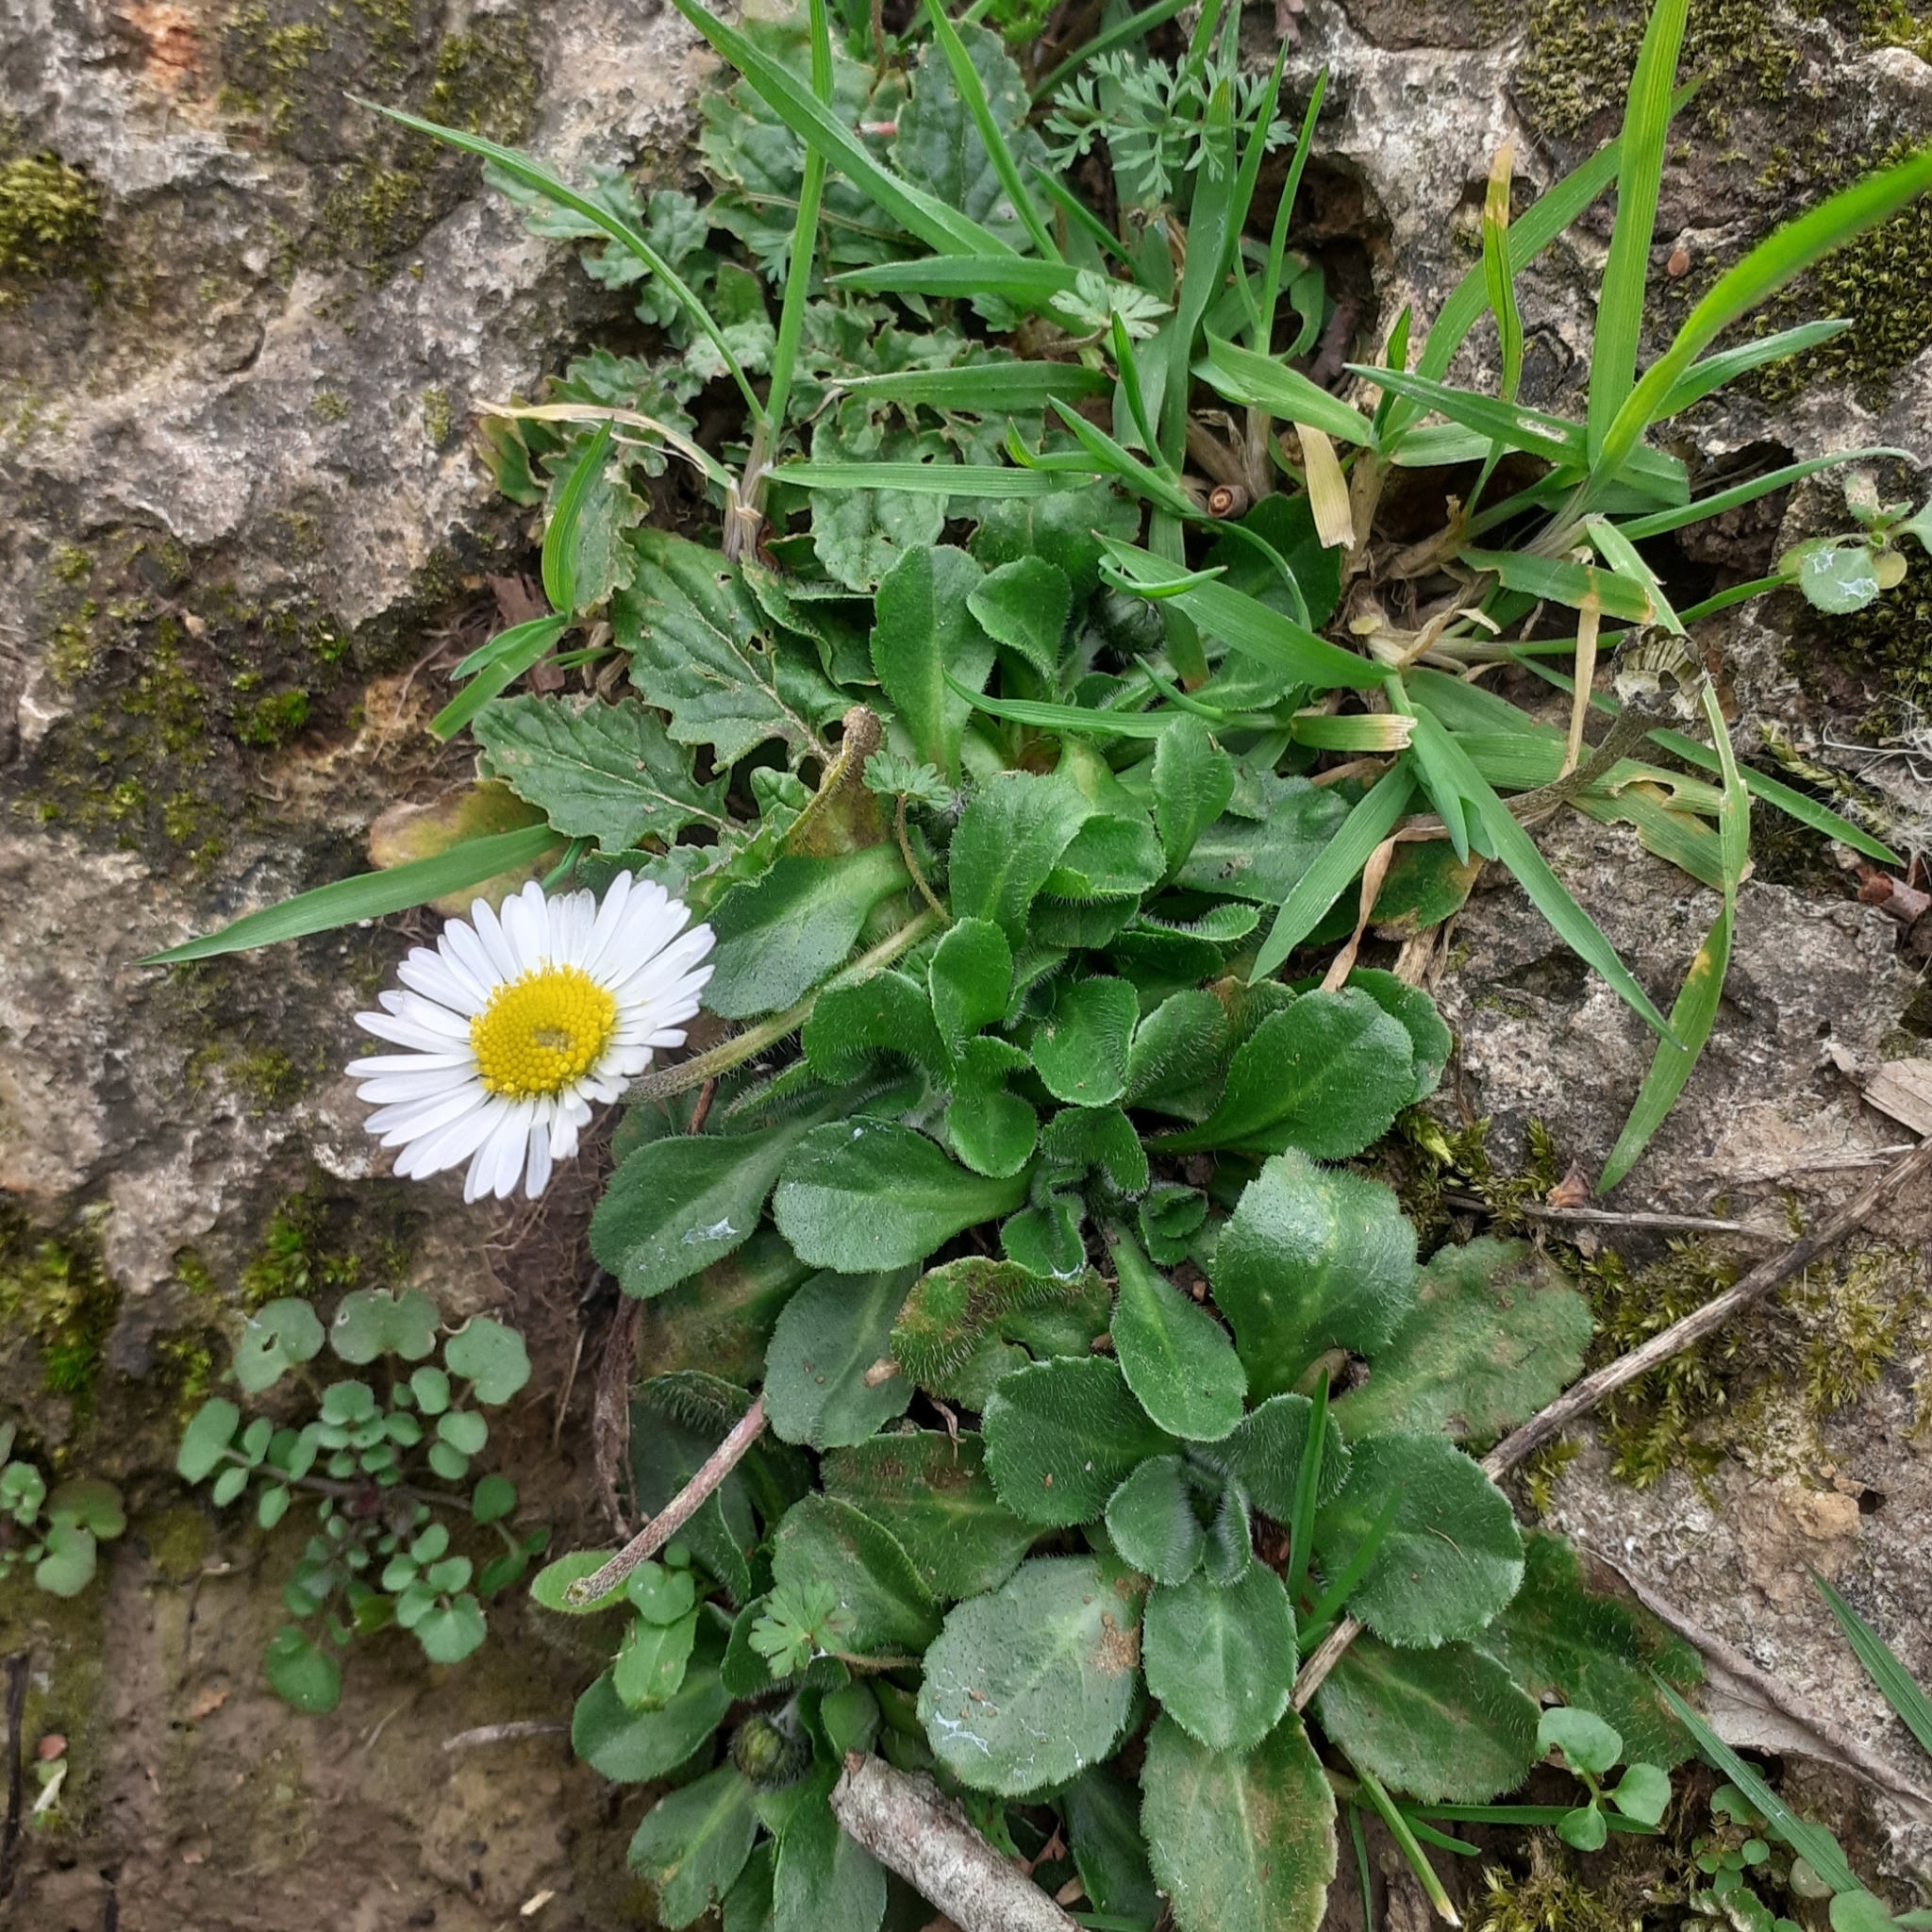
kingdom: Plantae
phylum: Tracheophyta
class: Magnoliopsida
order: Asterales
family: Asteraceae
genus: Bellis
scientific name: Bellis perennis
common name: Lawndaisy
